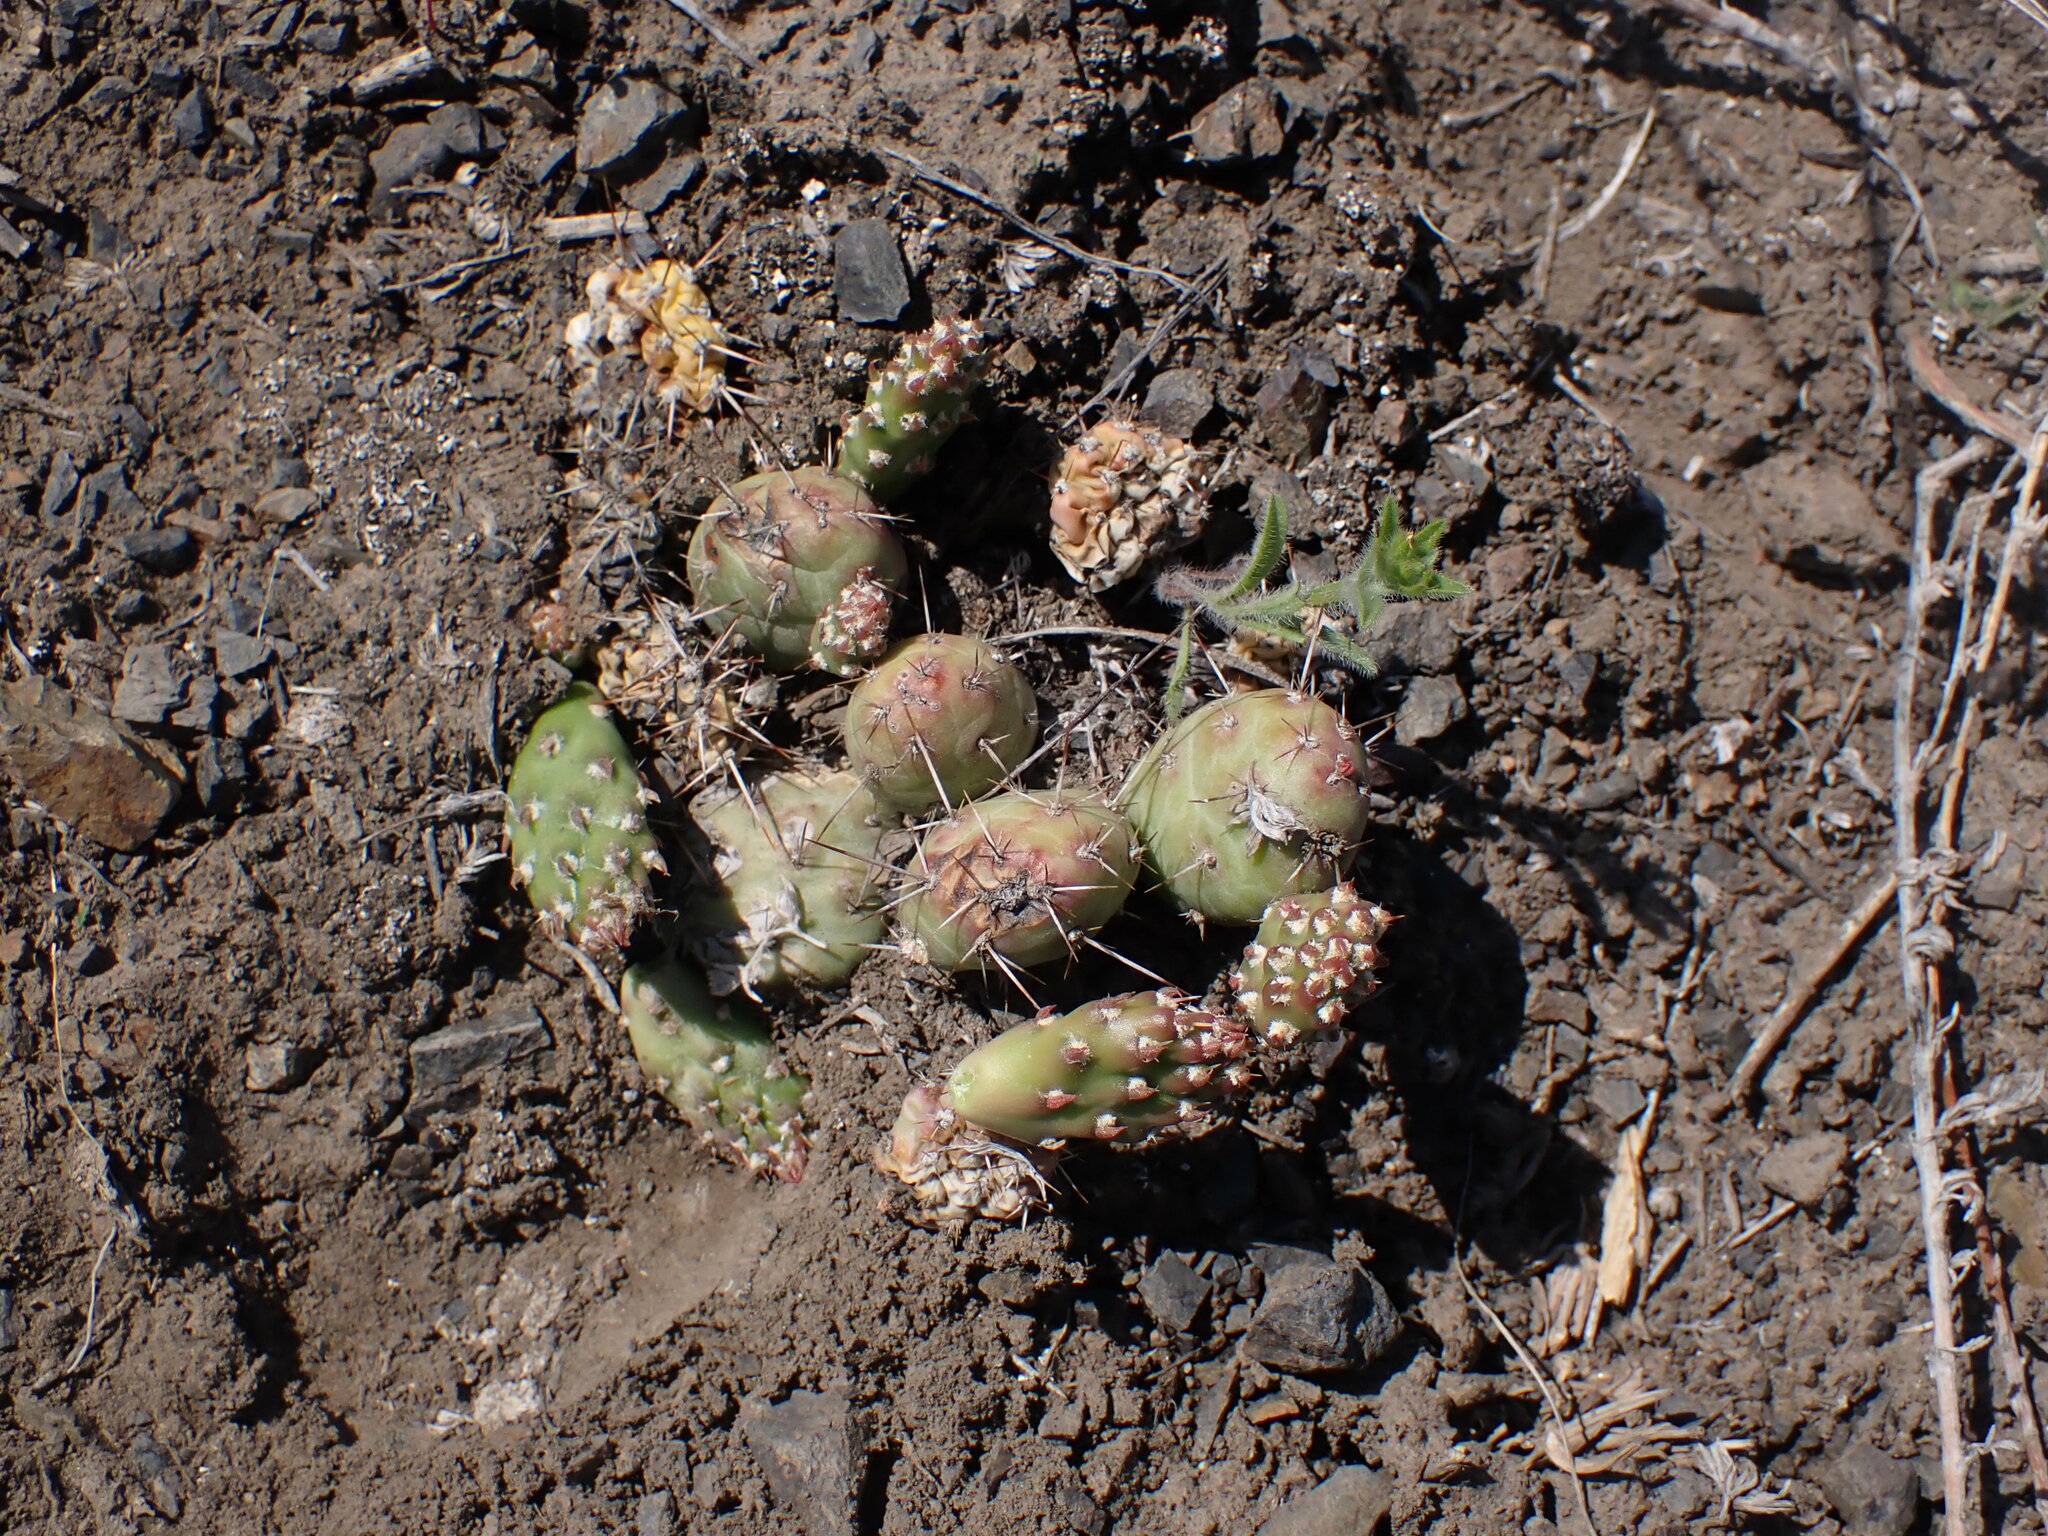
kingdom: Plantae
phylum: Tracheophyta
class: Magnoliopsida
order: Caryophyllales
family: Cactaceae
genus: Opuntia
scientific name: Opuntia fragilis
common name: Brittle cactus
